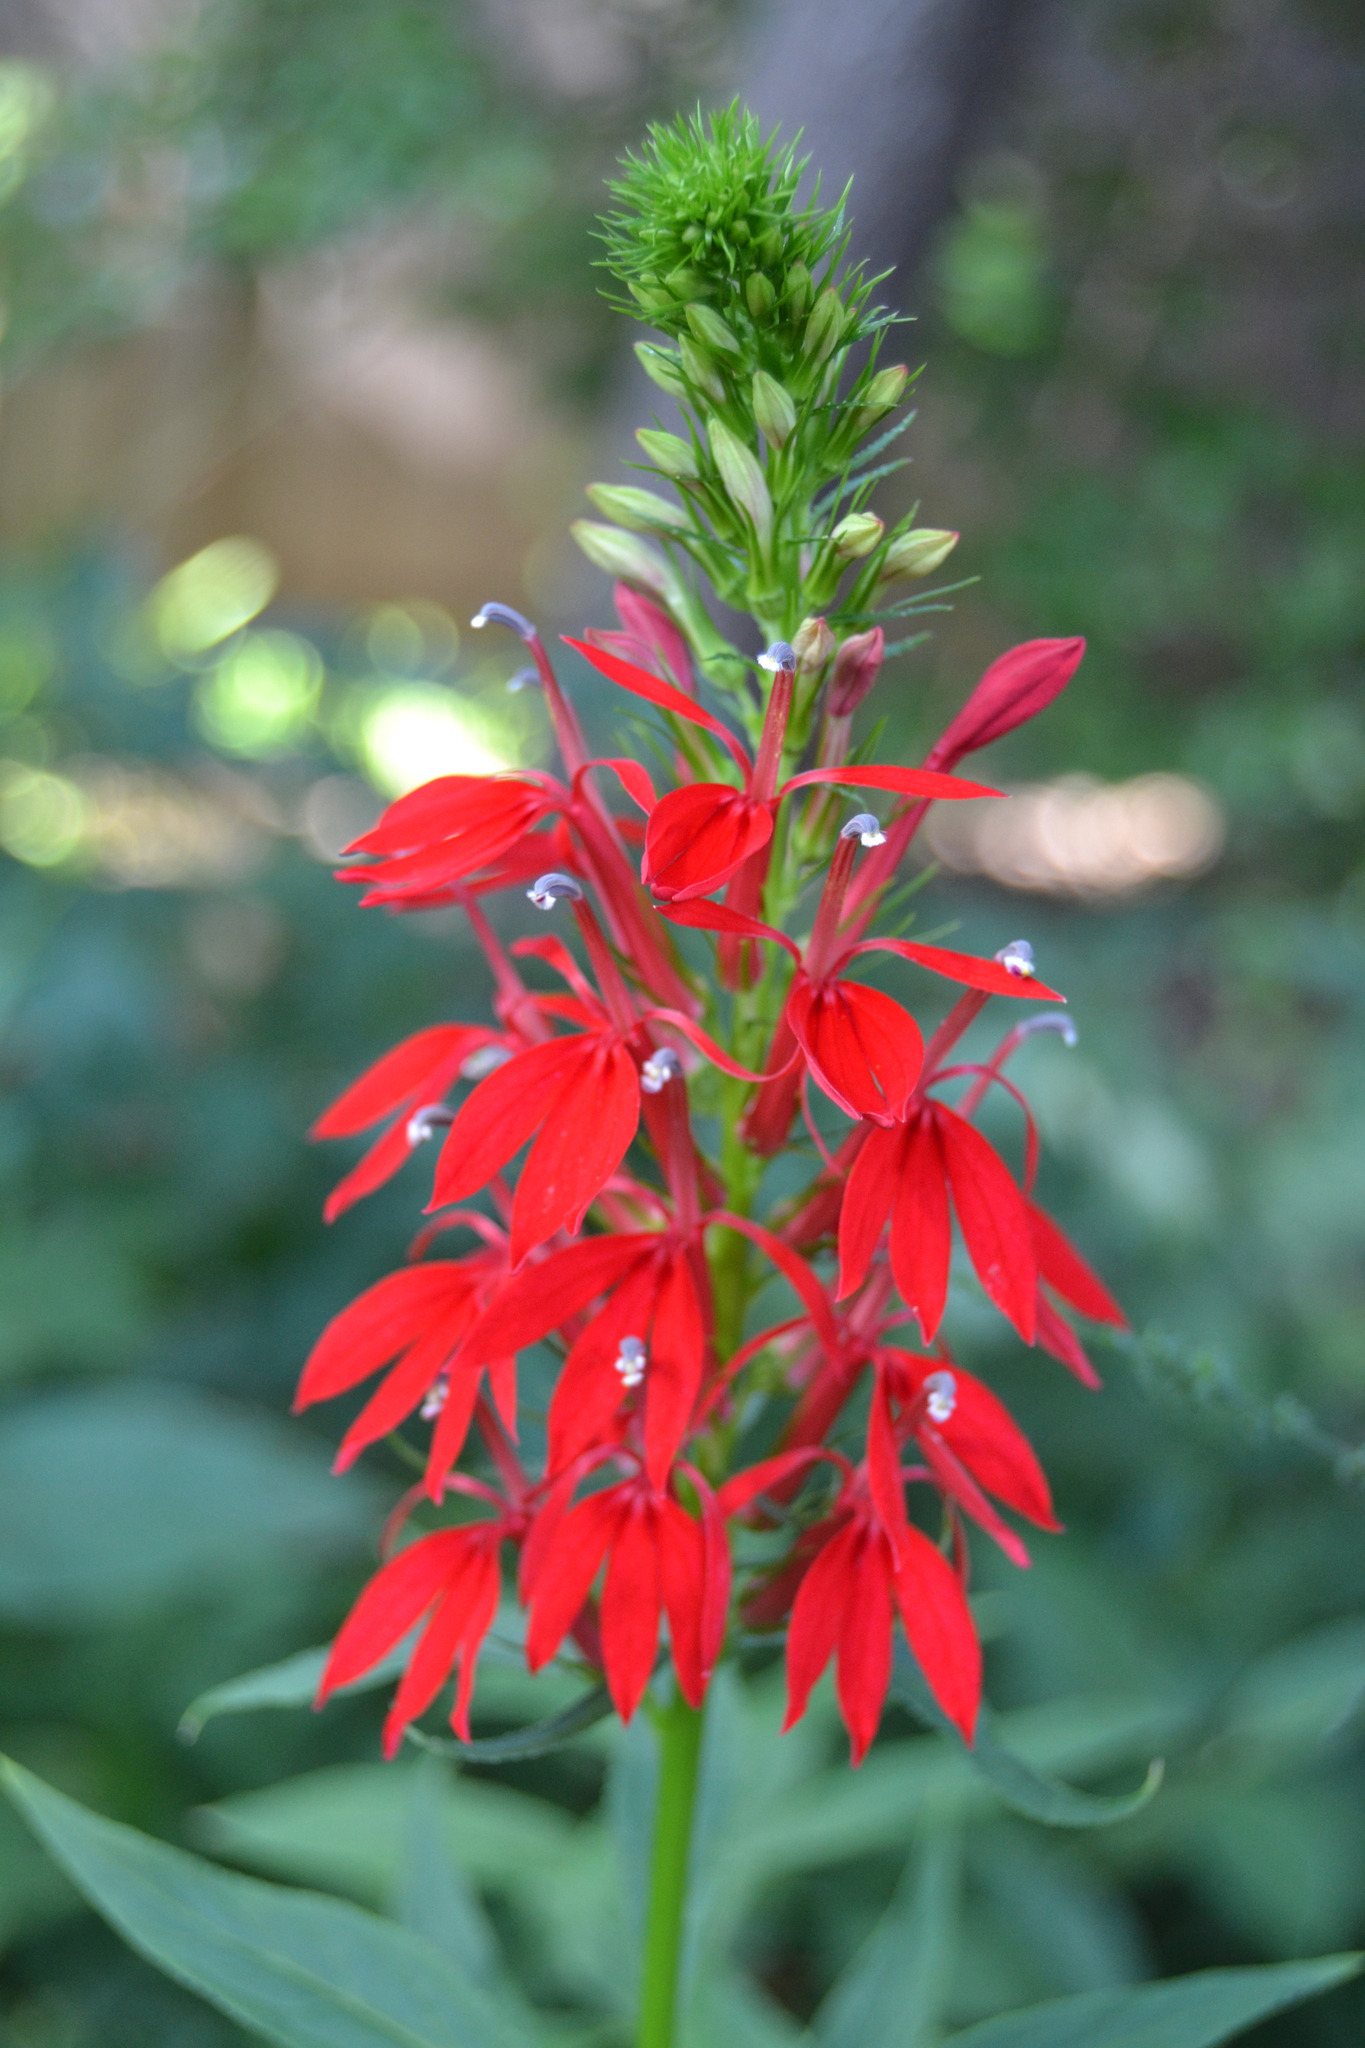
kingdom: Plantae
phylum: Tracheophyta
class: Magnoliopsida
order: Asterales
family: Campanulaceae
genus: Lobelia
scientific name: Lobelia cardinalis
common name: Cardinal flower
